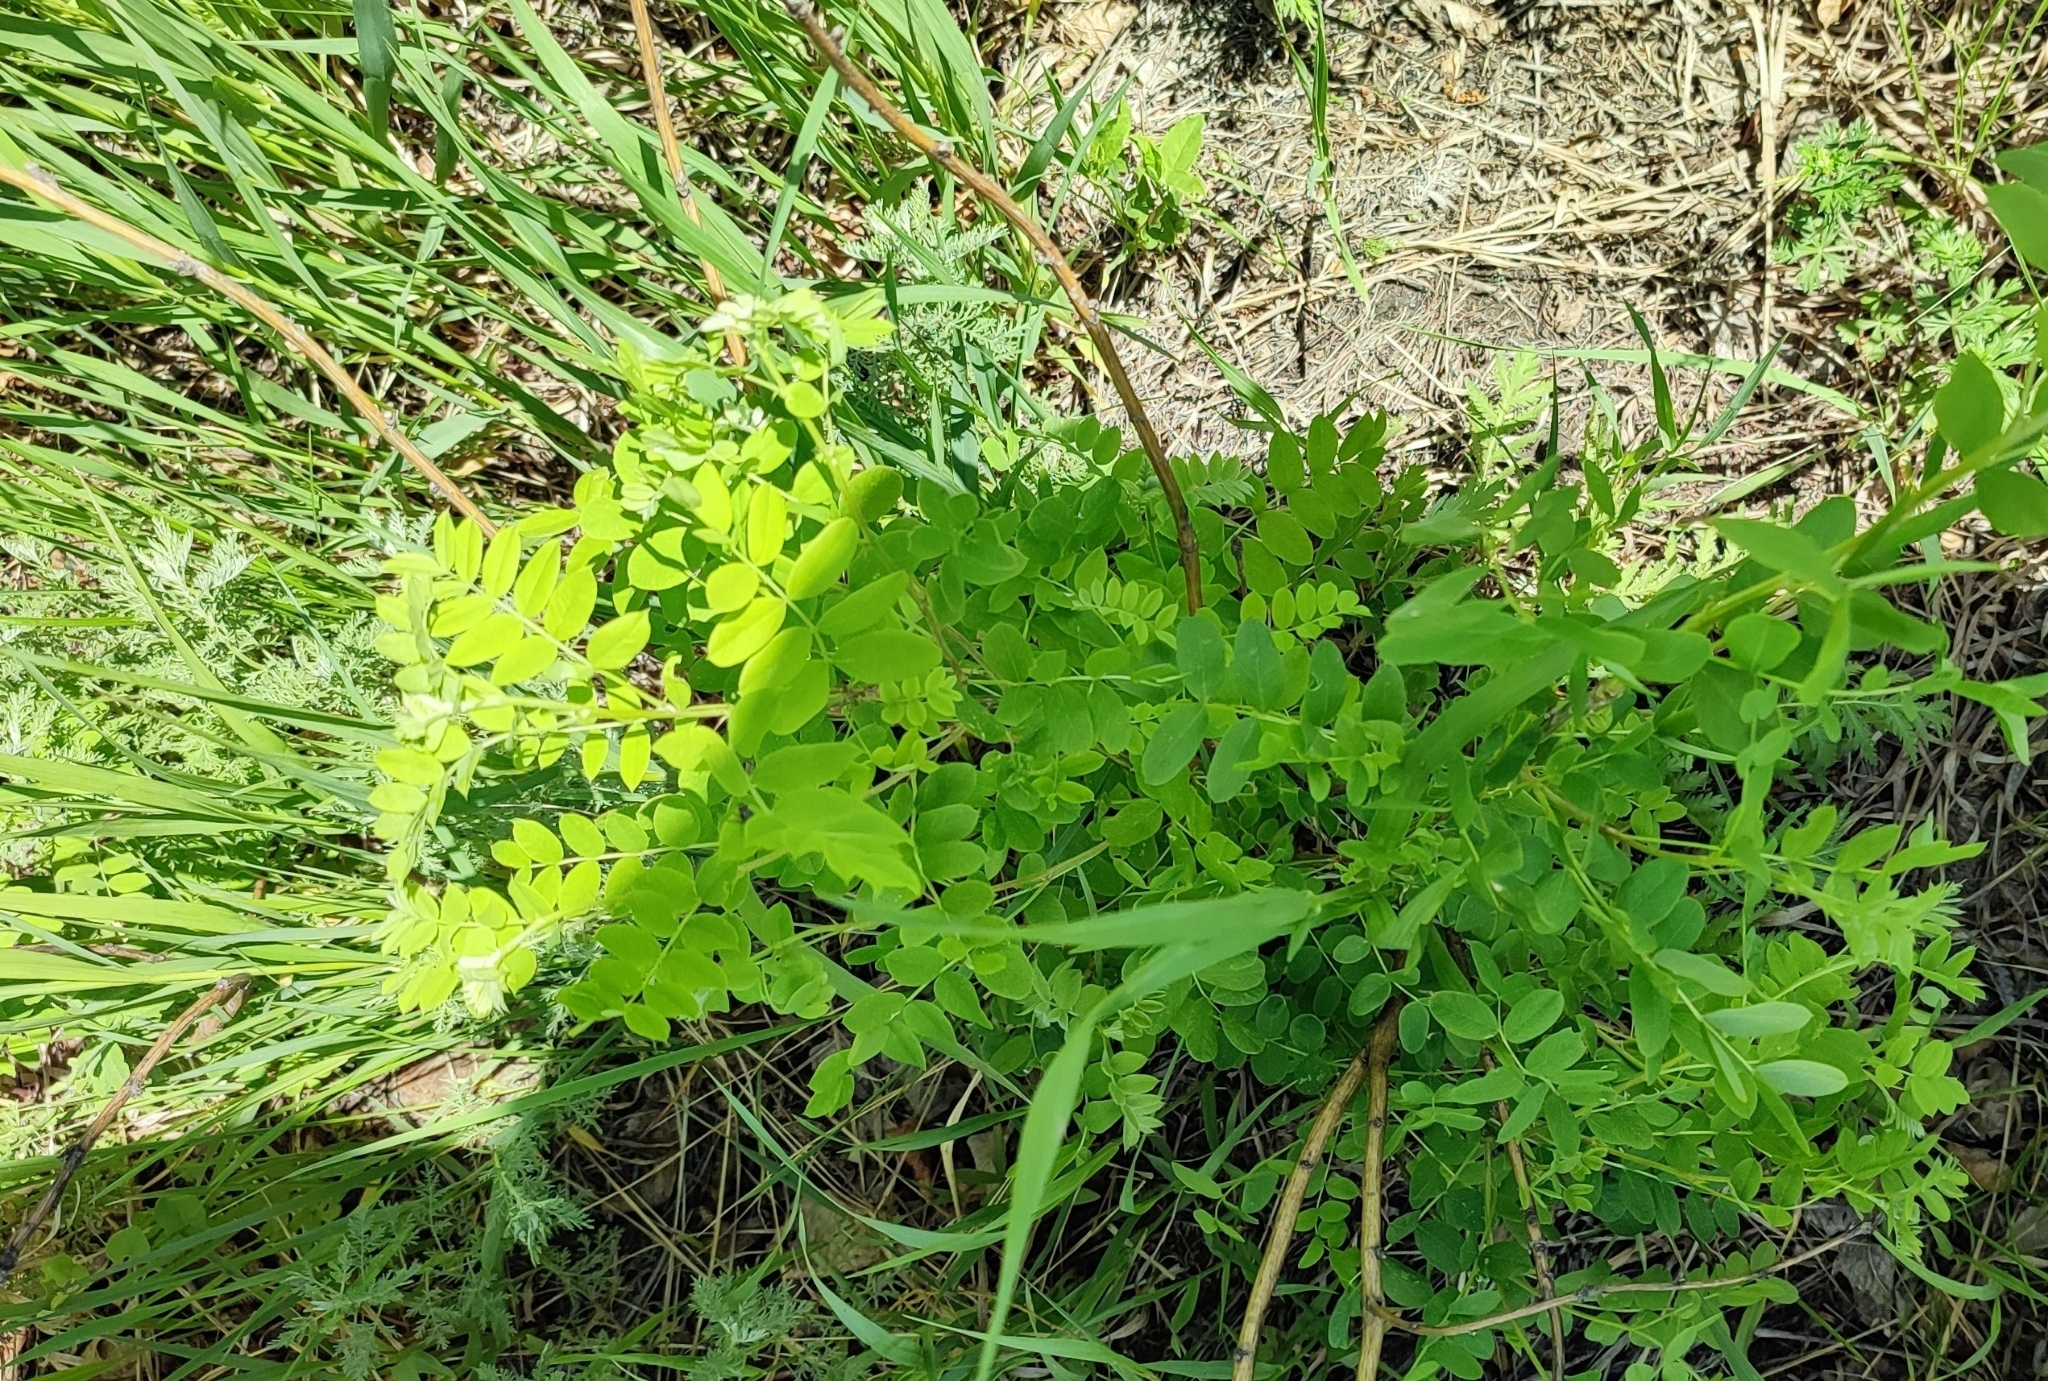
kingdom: Plantae
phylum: Tracheophyta
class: Magnoliopsida
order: Fabales
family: Fabaceae
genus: Caragana
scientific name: Caragana arborescens
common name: Siberian peashrub
